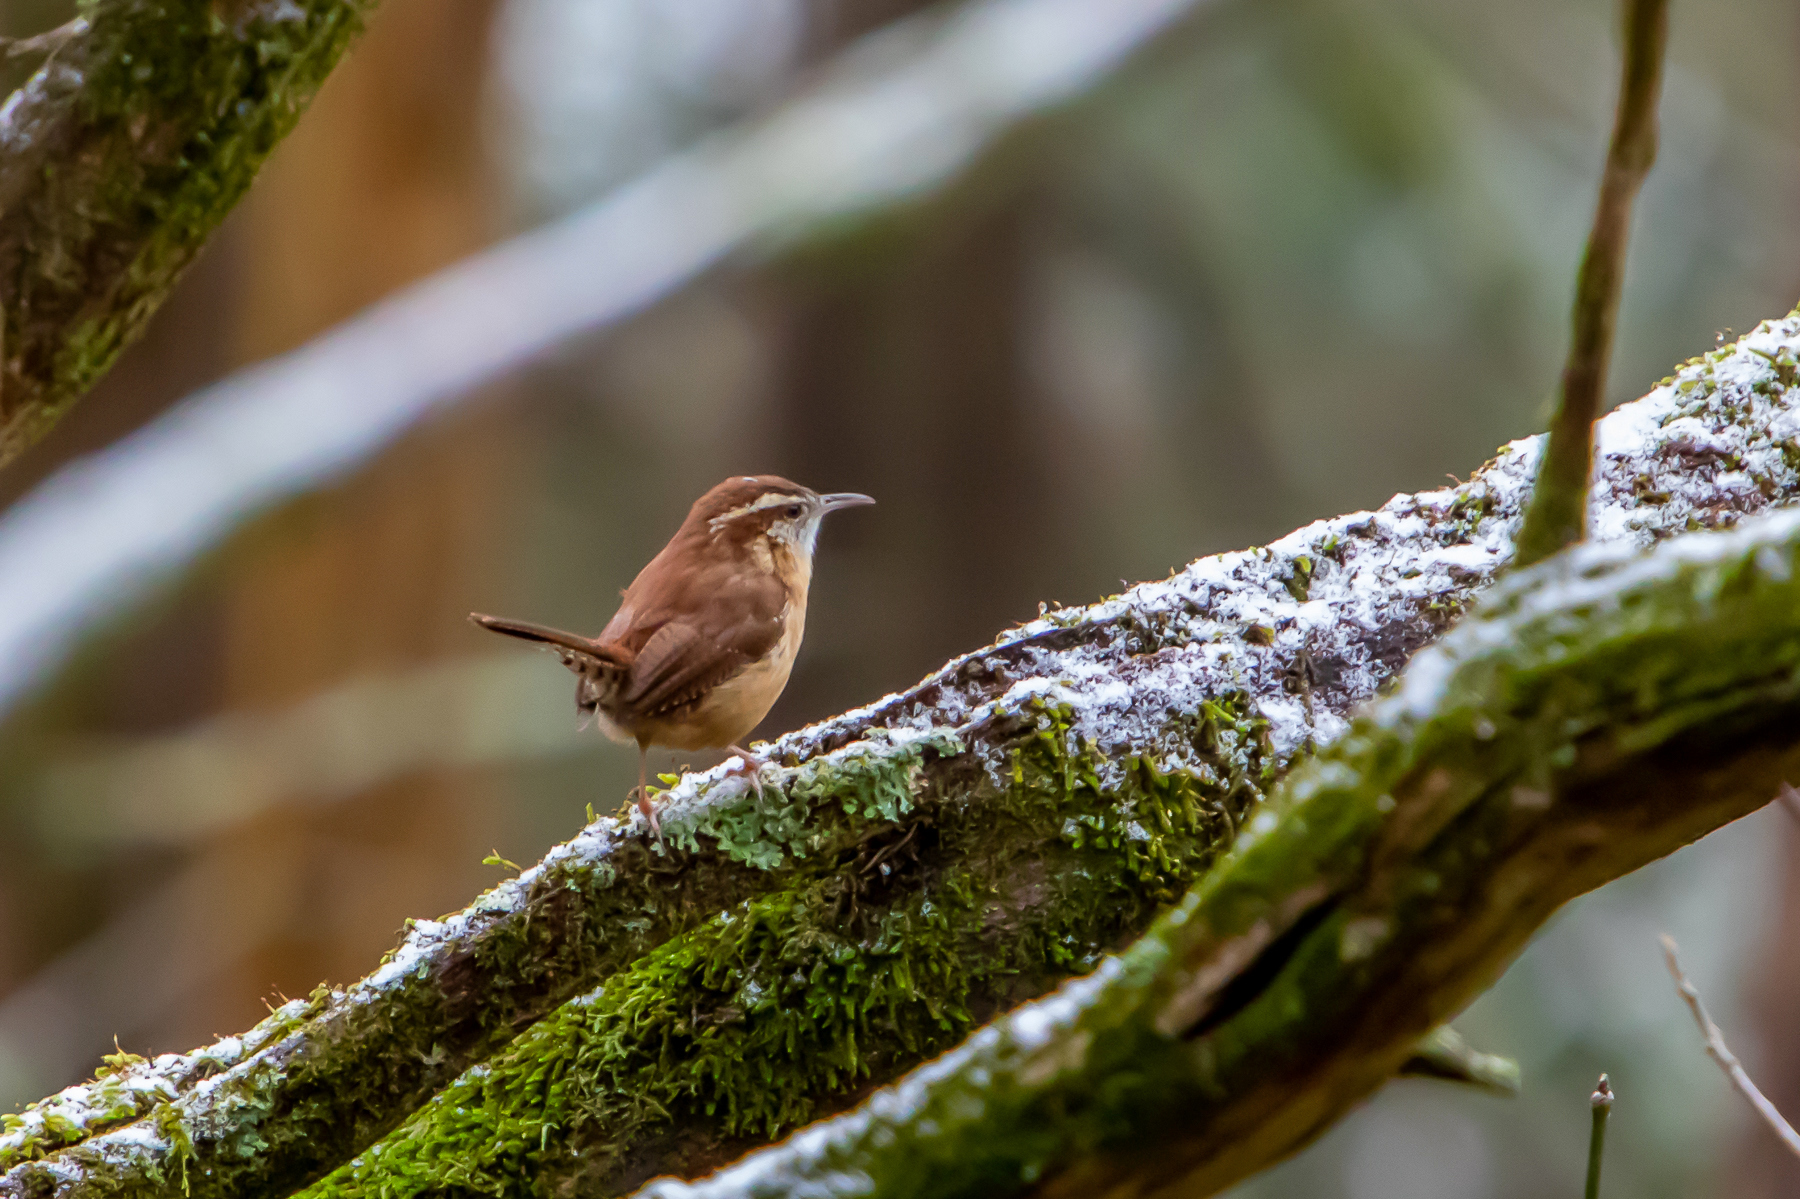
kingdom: Animalia
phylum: Chordata
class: Aves
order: Passeriformes
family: Troglodytidae
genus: Thryothorus
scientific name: Thryothorus ludovicianus
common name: Carolina wren
